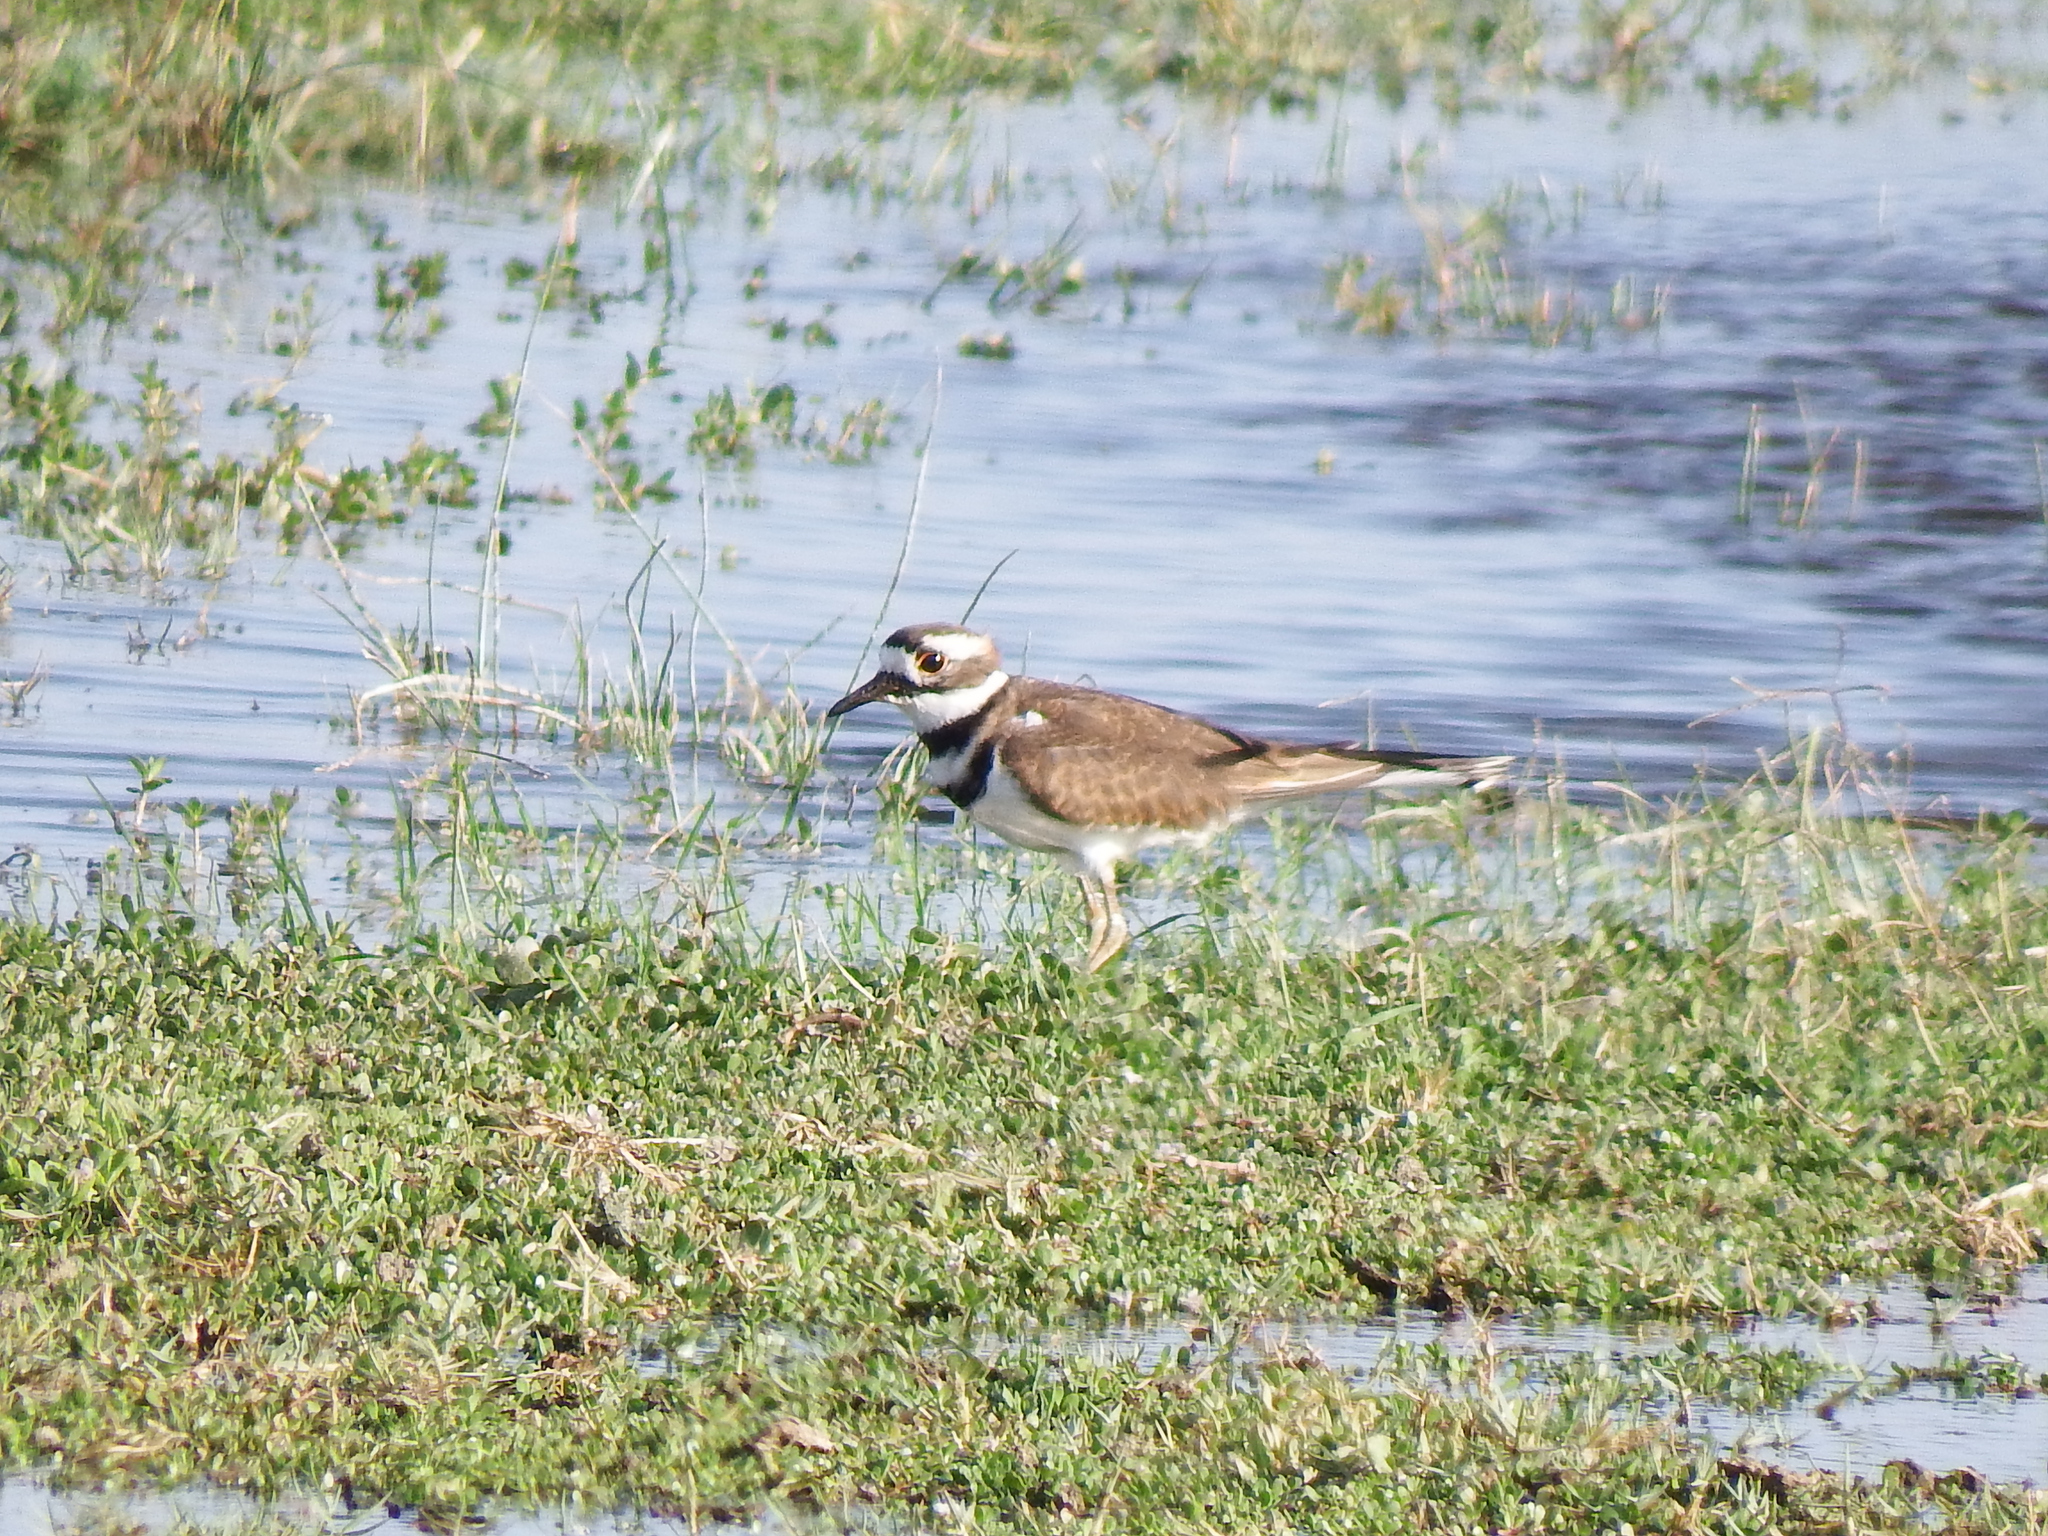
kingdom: Animalia
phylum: Chordata
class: Aves
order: Charadriiformes
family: Charadriidae
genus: Charadrius
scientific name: Charadrius vociferus
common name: Killdeer
